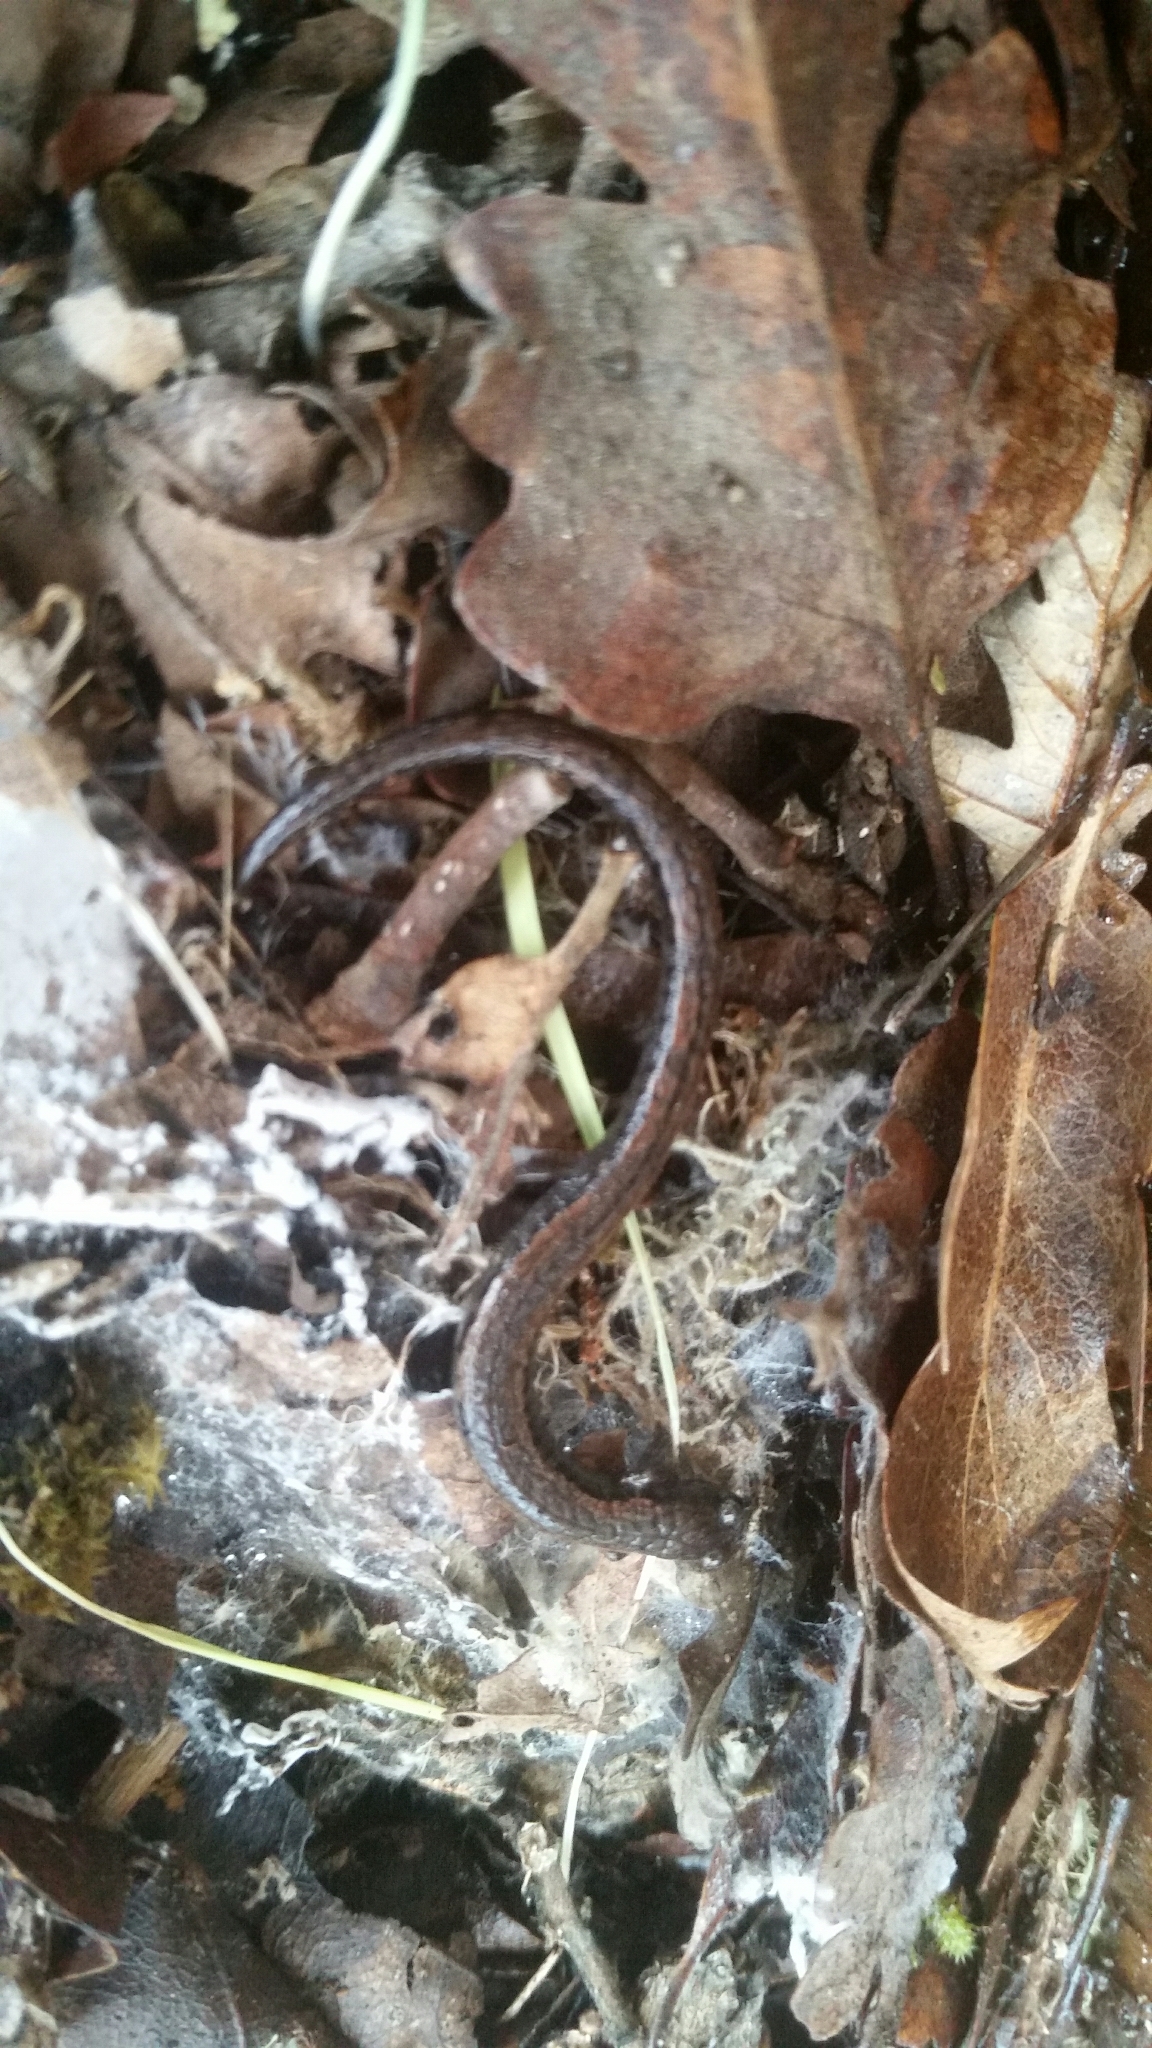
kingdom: Animalia
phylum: Chordata
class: Amphibia
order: Caudata
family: Plethodontidae
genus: Batrachoseps
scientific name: Batrachoseps attenuatus
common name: California slender salamander
